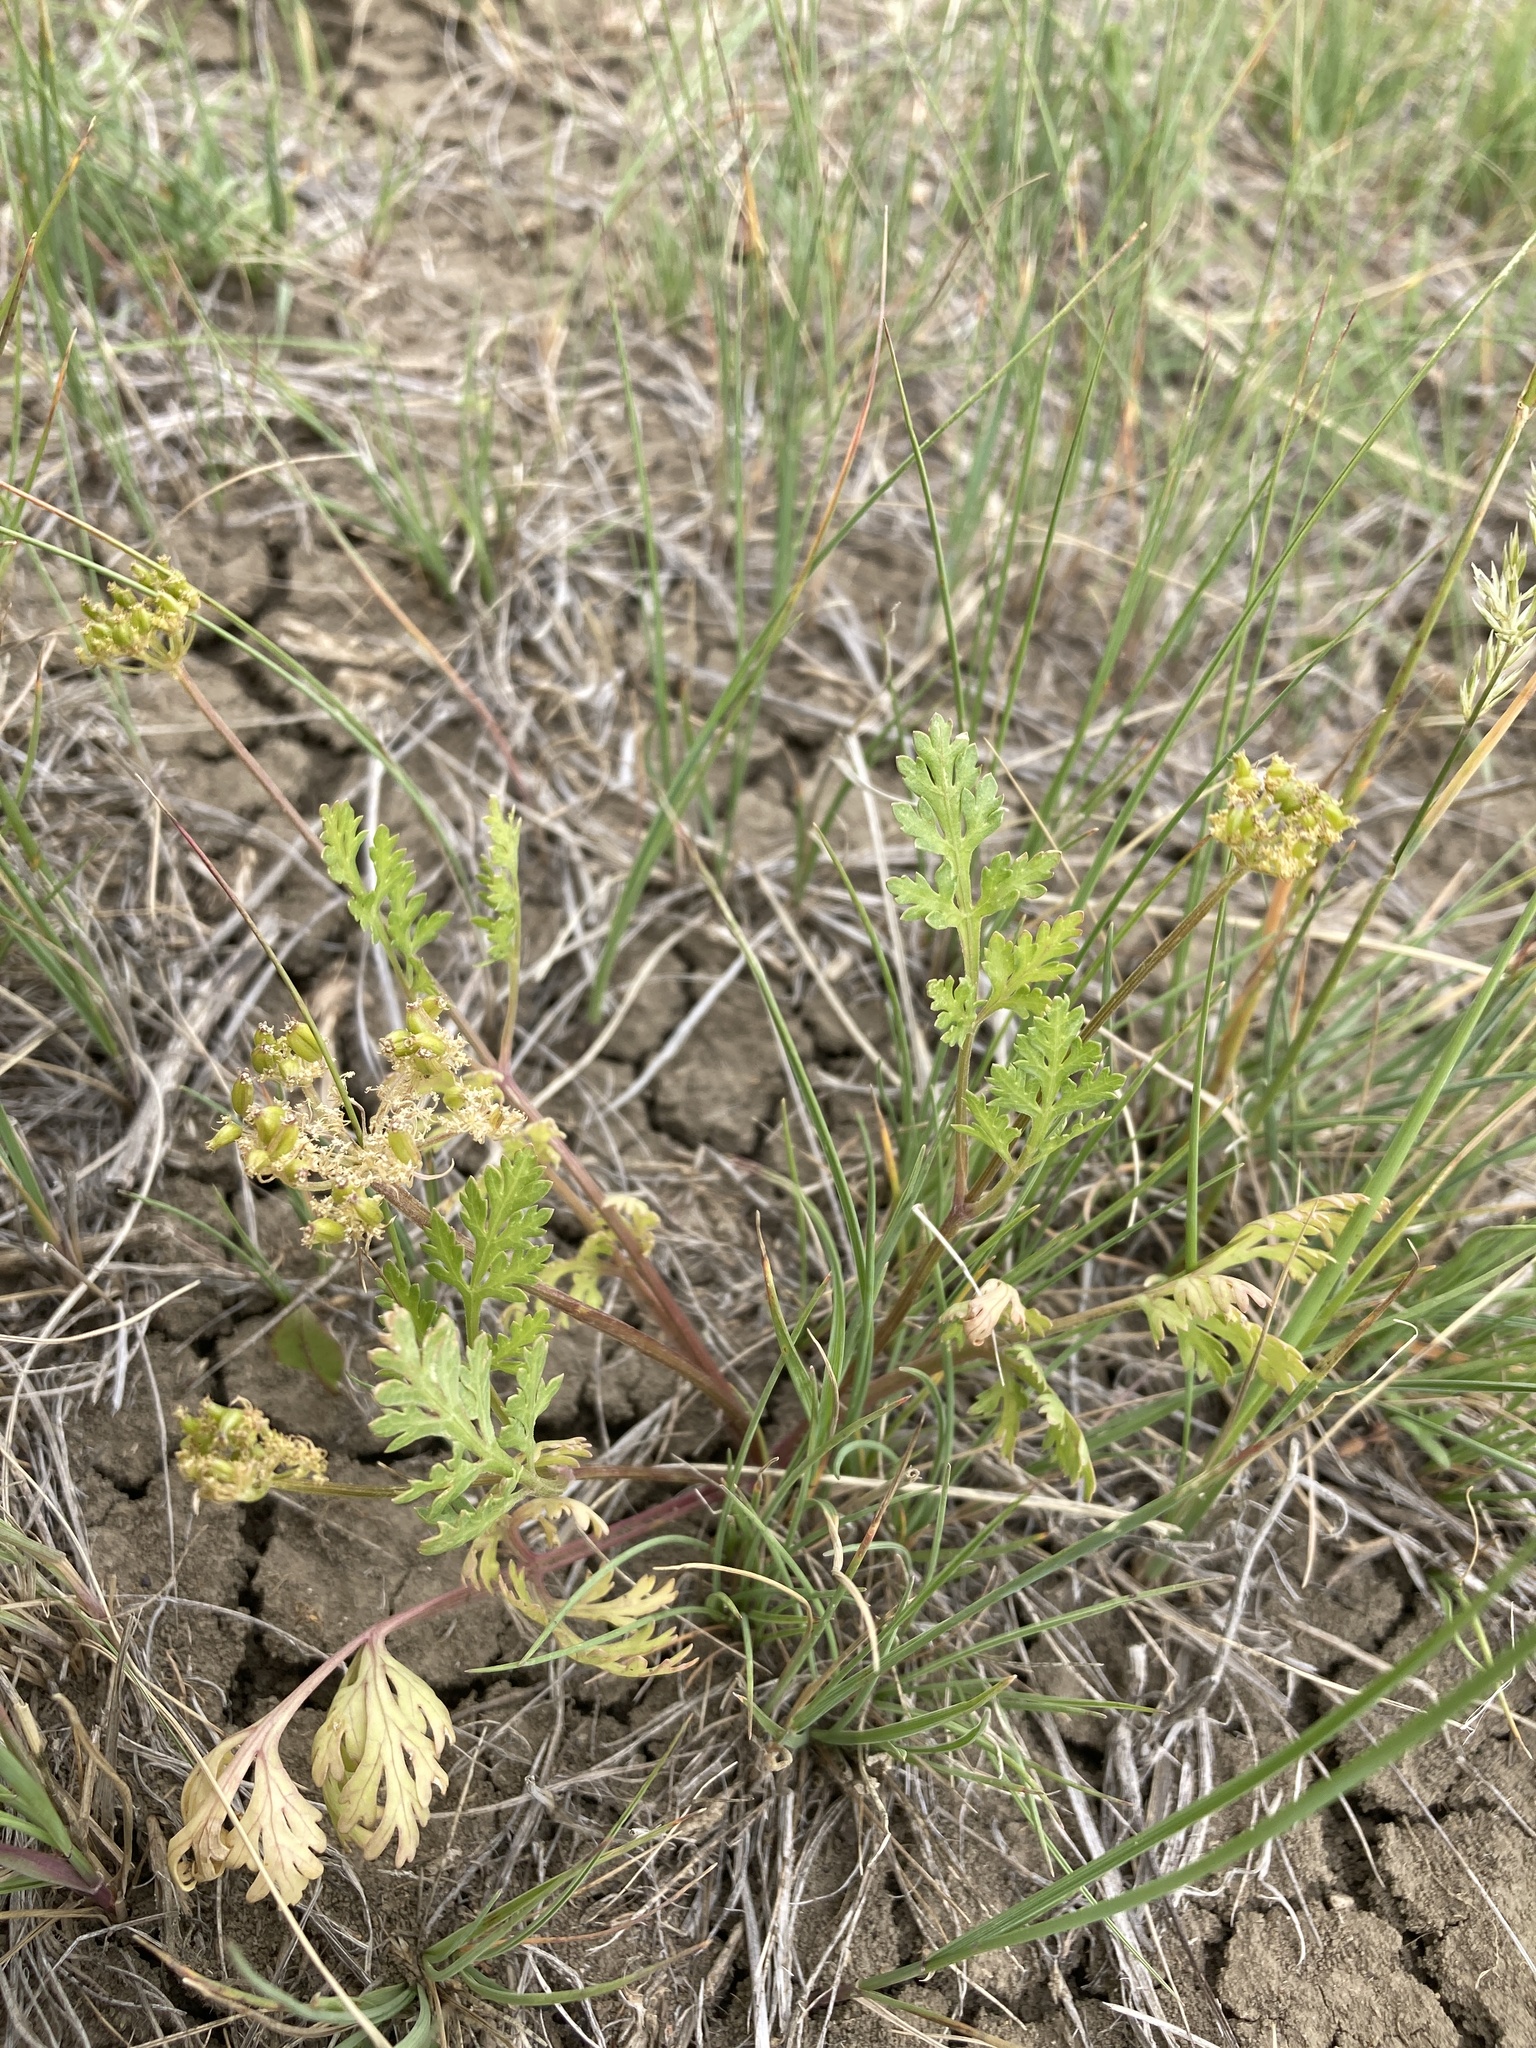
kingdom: Plantae
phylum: Tracheophyta
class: Magnoliopsida
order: Apiales
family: Apiaceae
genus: Musineon
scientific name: Musineon divaricatum
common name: Plains musineon
